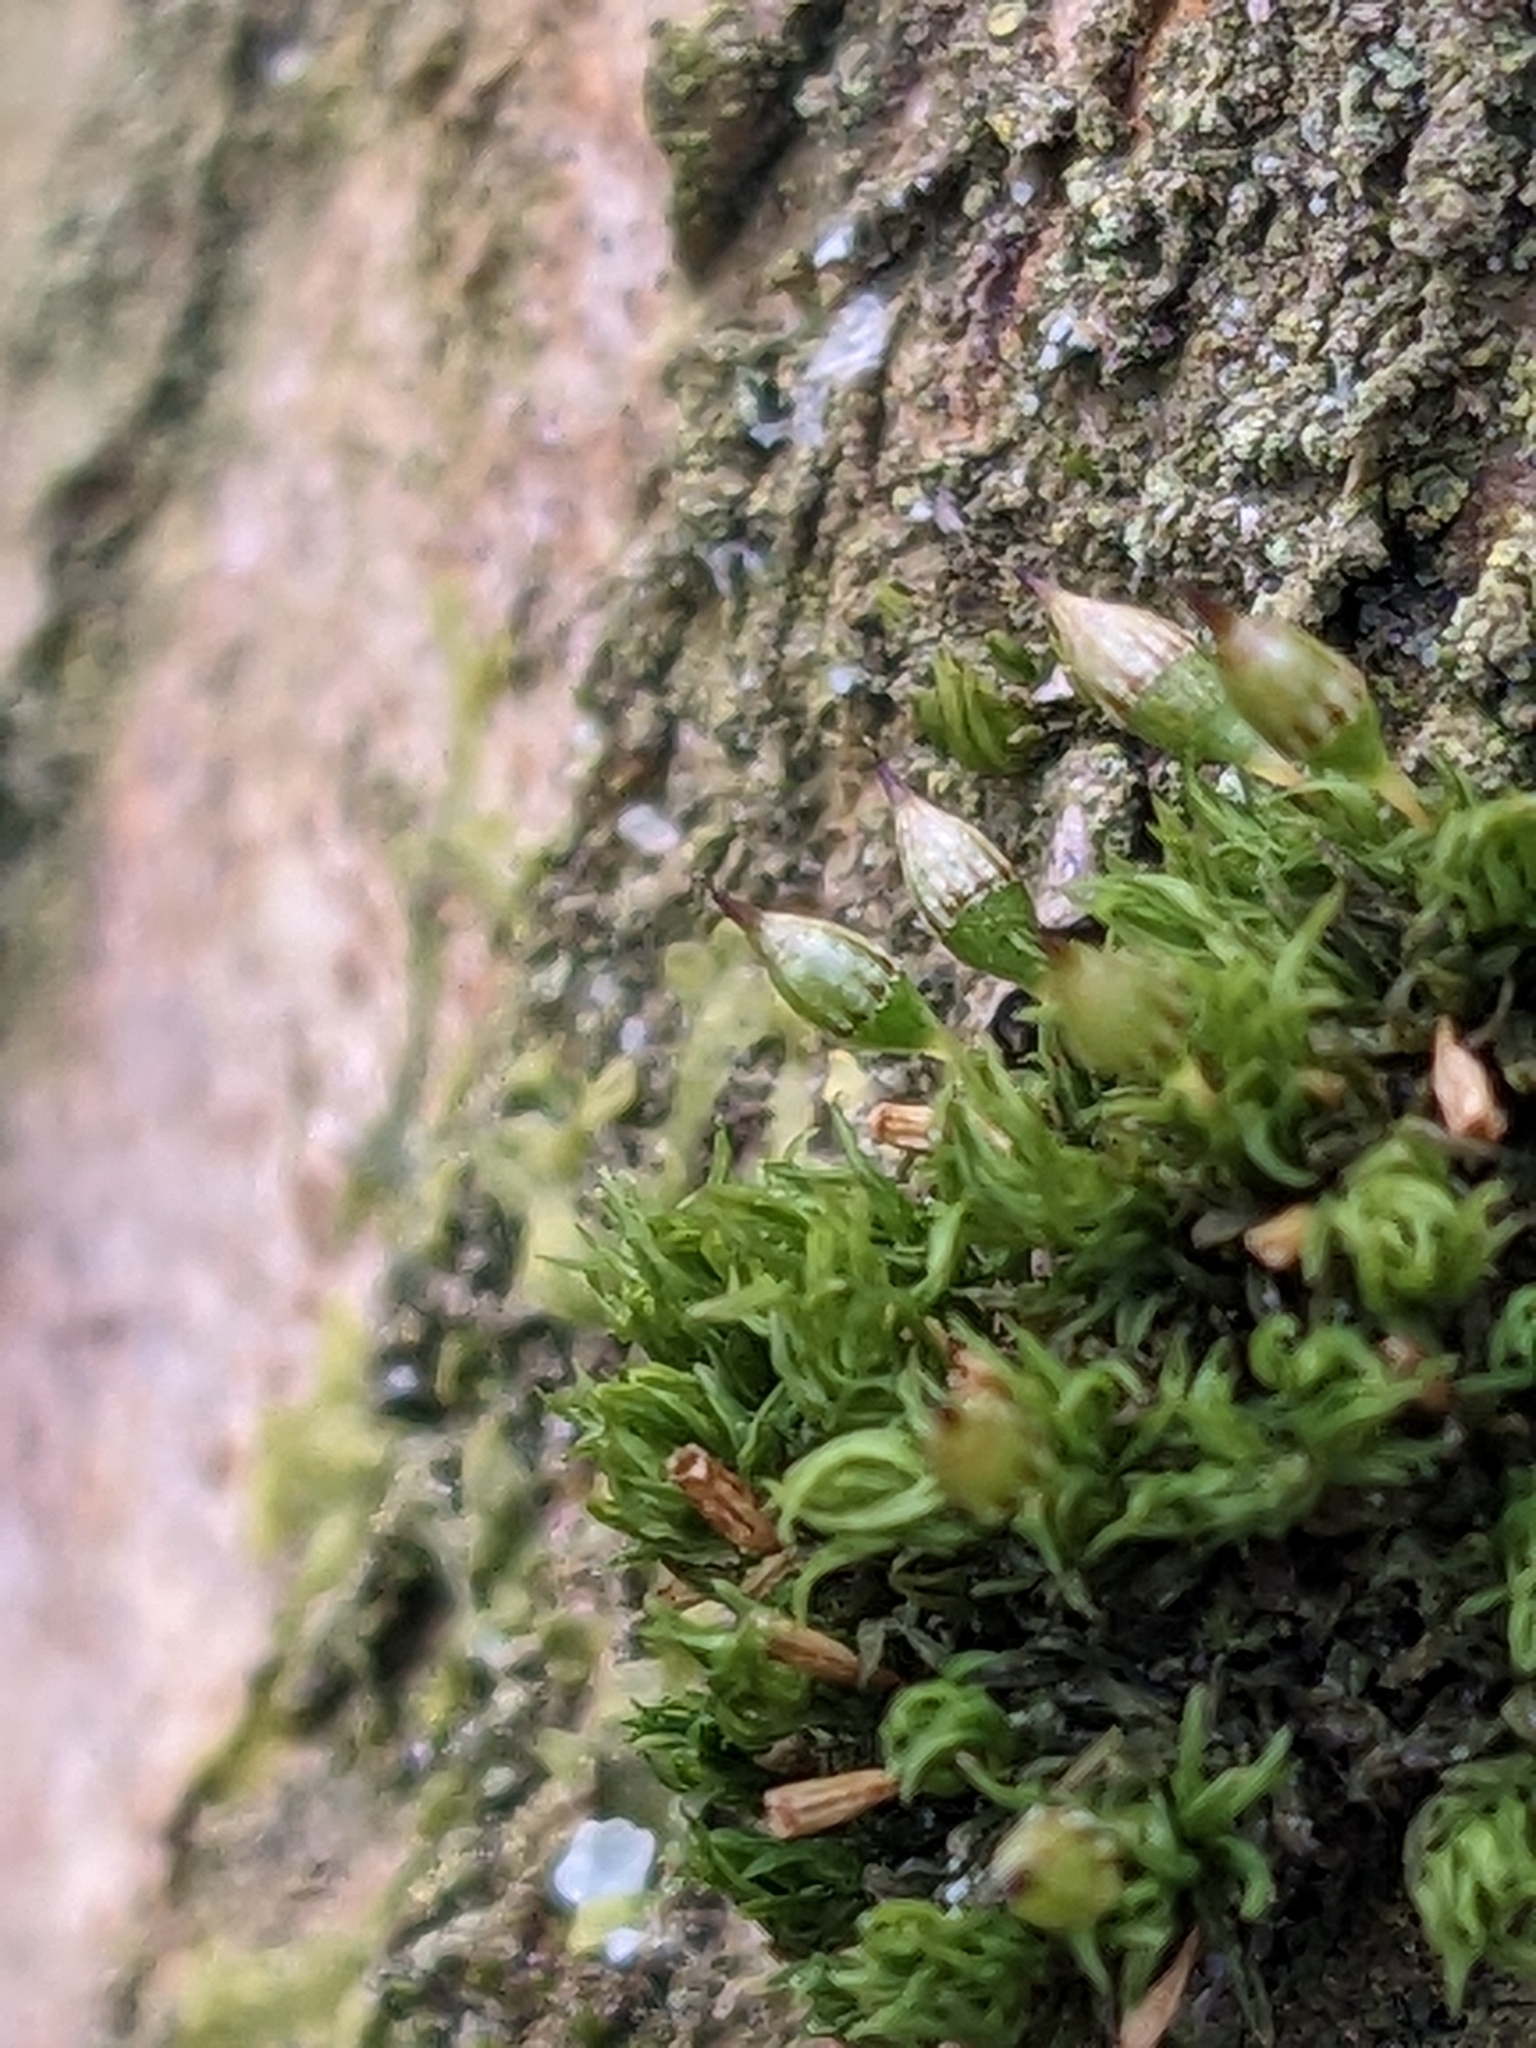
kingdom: Plantae
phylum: Bryophyta
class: Bryopsida
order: Orthotrichales
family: Orthotrichaceae
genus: Orthotrichum
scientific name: Orthotrichum pulchellum
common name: Elegant bristle-moss
